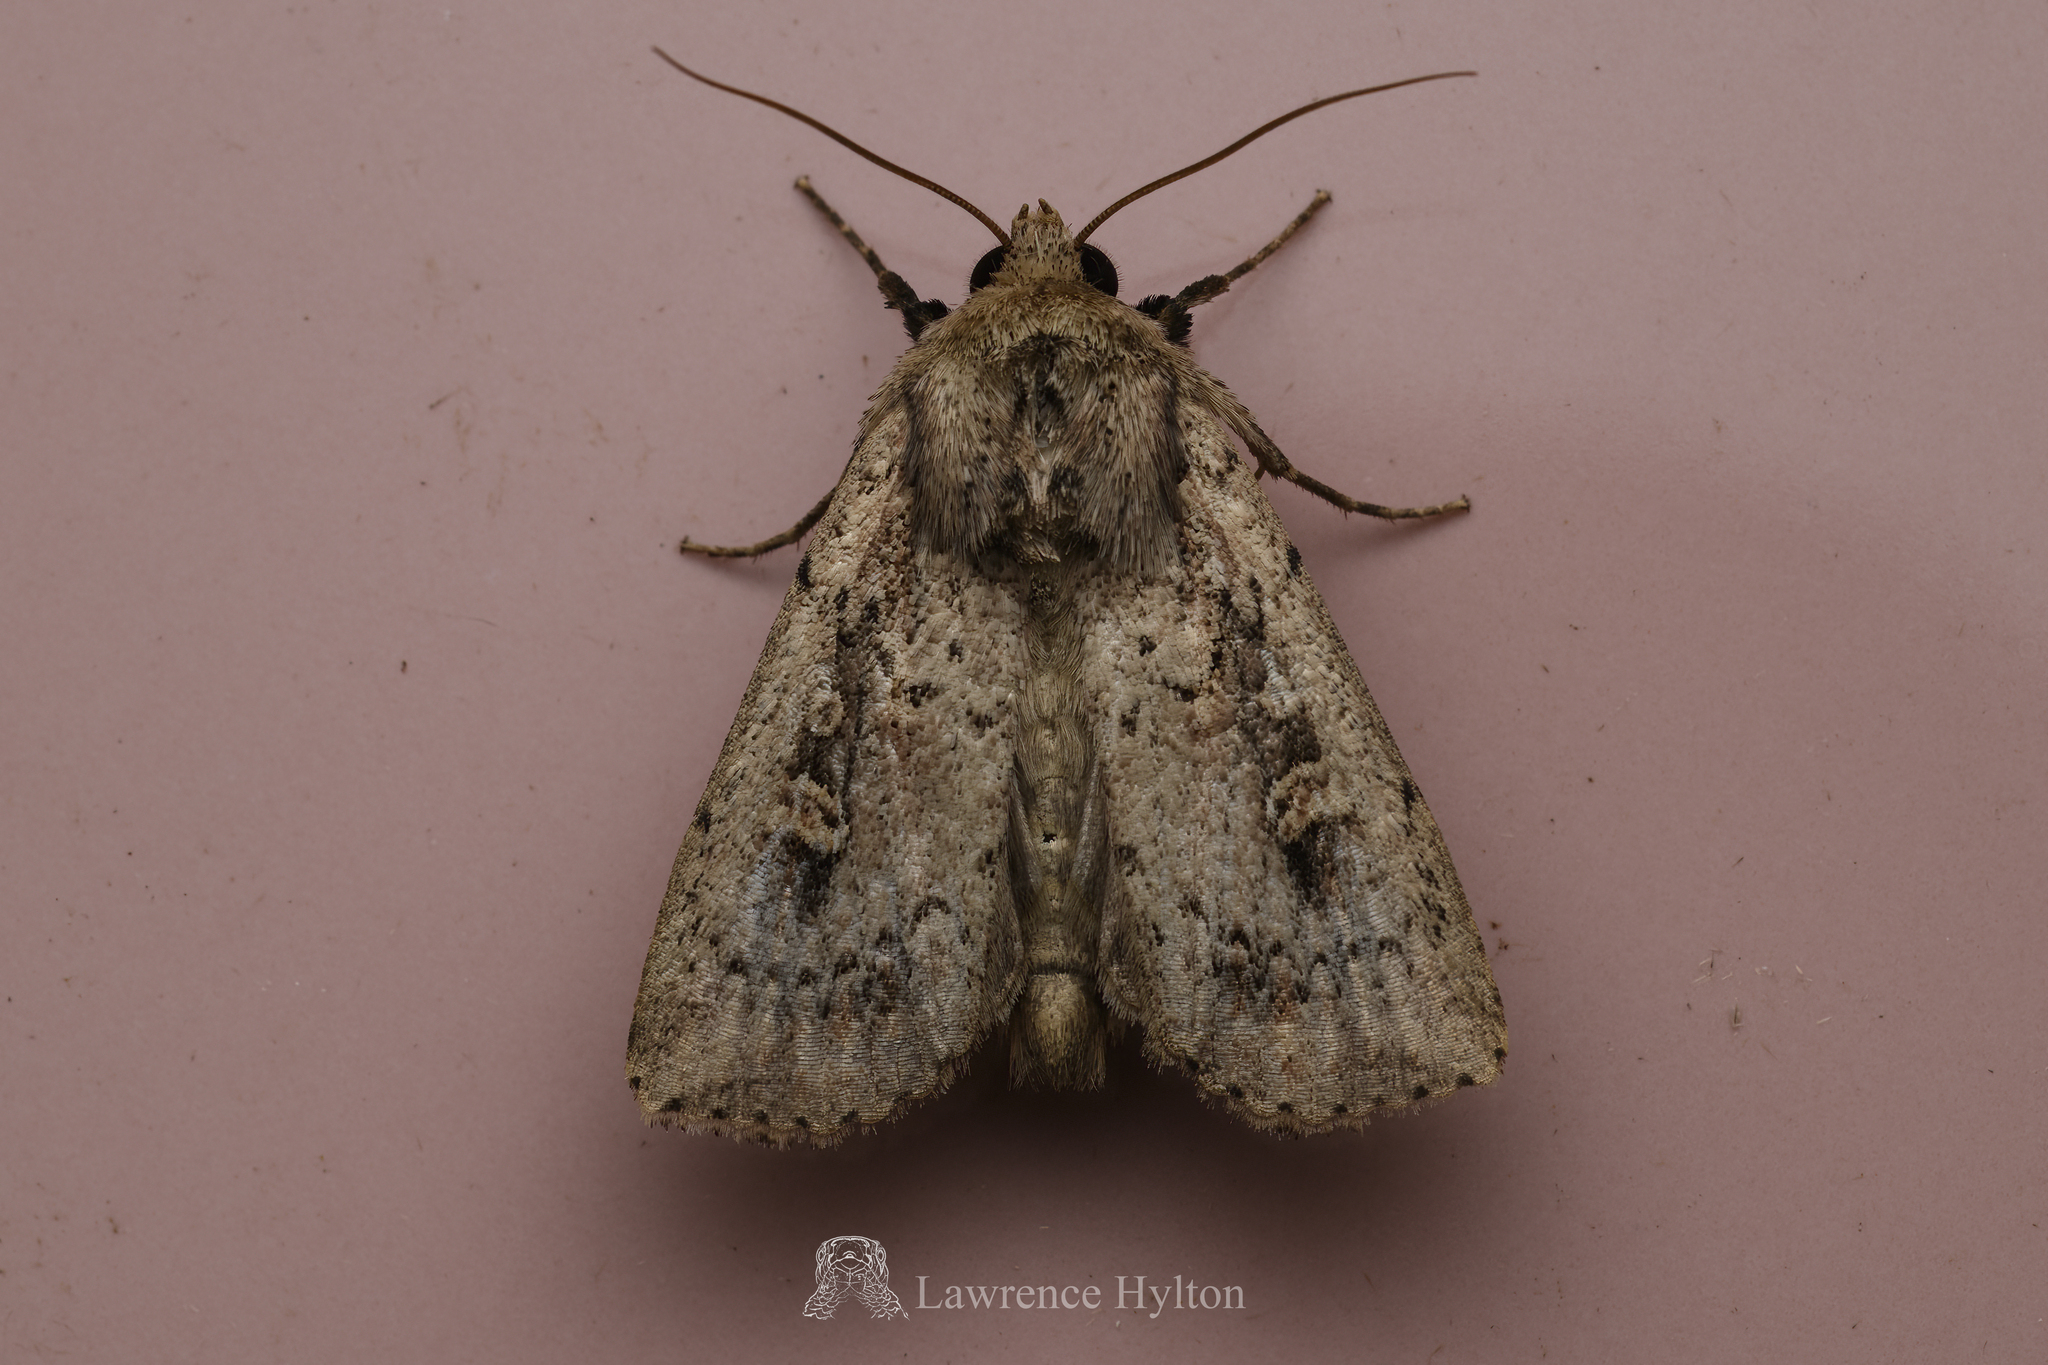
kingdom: Animalia
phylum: Arthropoda
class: Insecta
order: Lepidoptera
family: Noctuidae
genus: Mythimna
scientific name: Mythimna reversa
